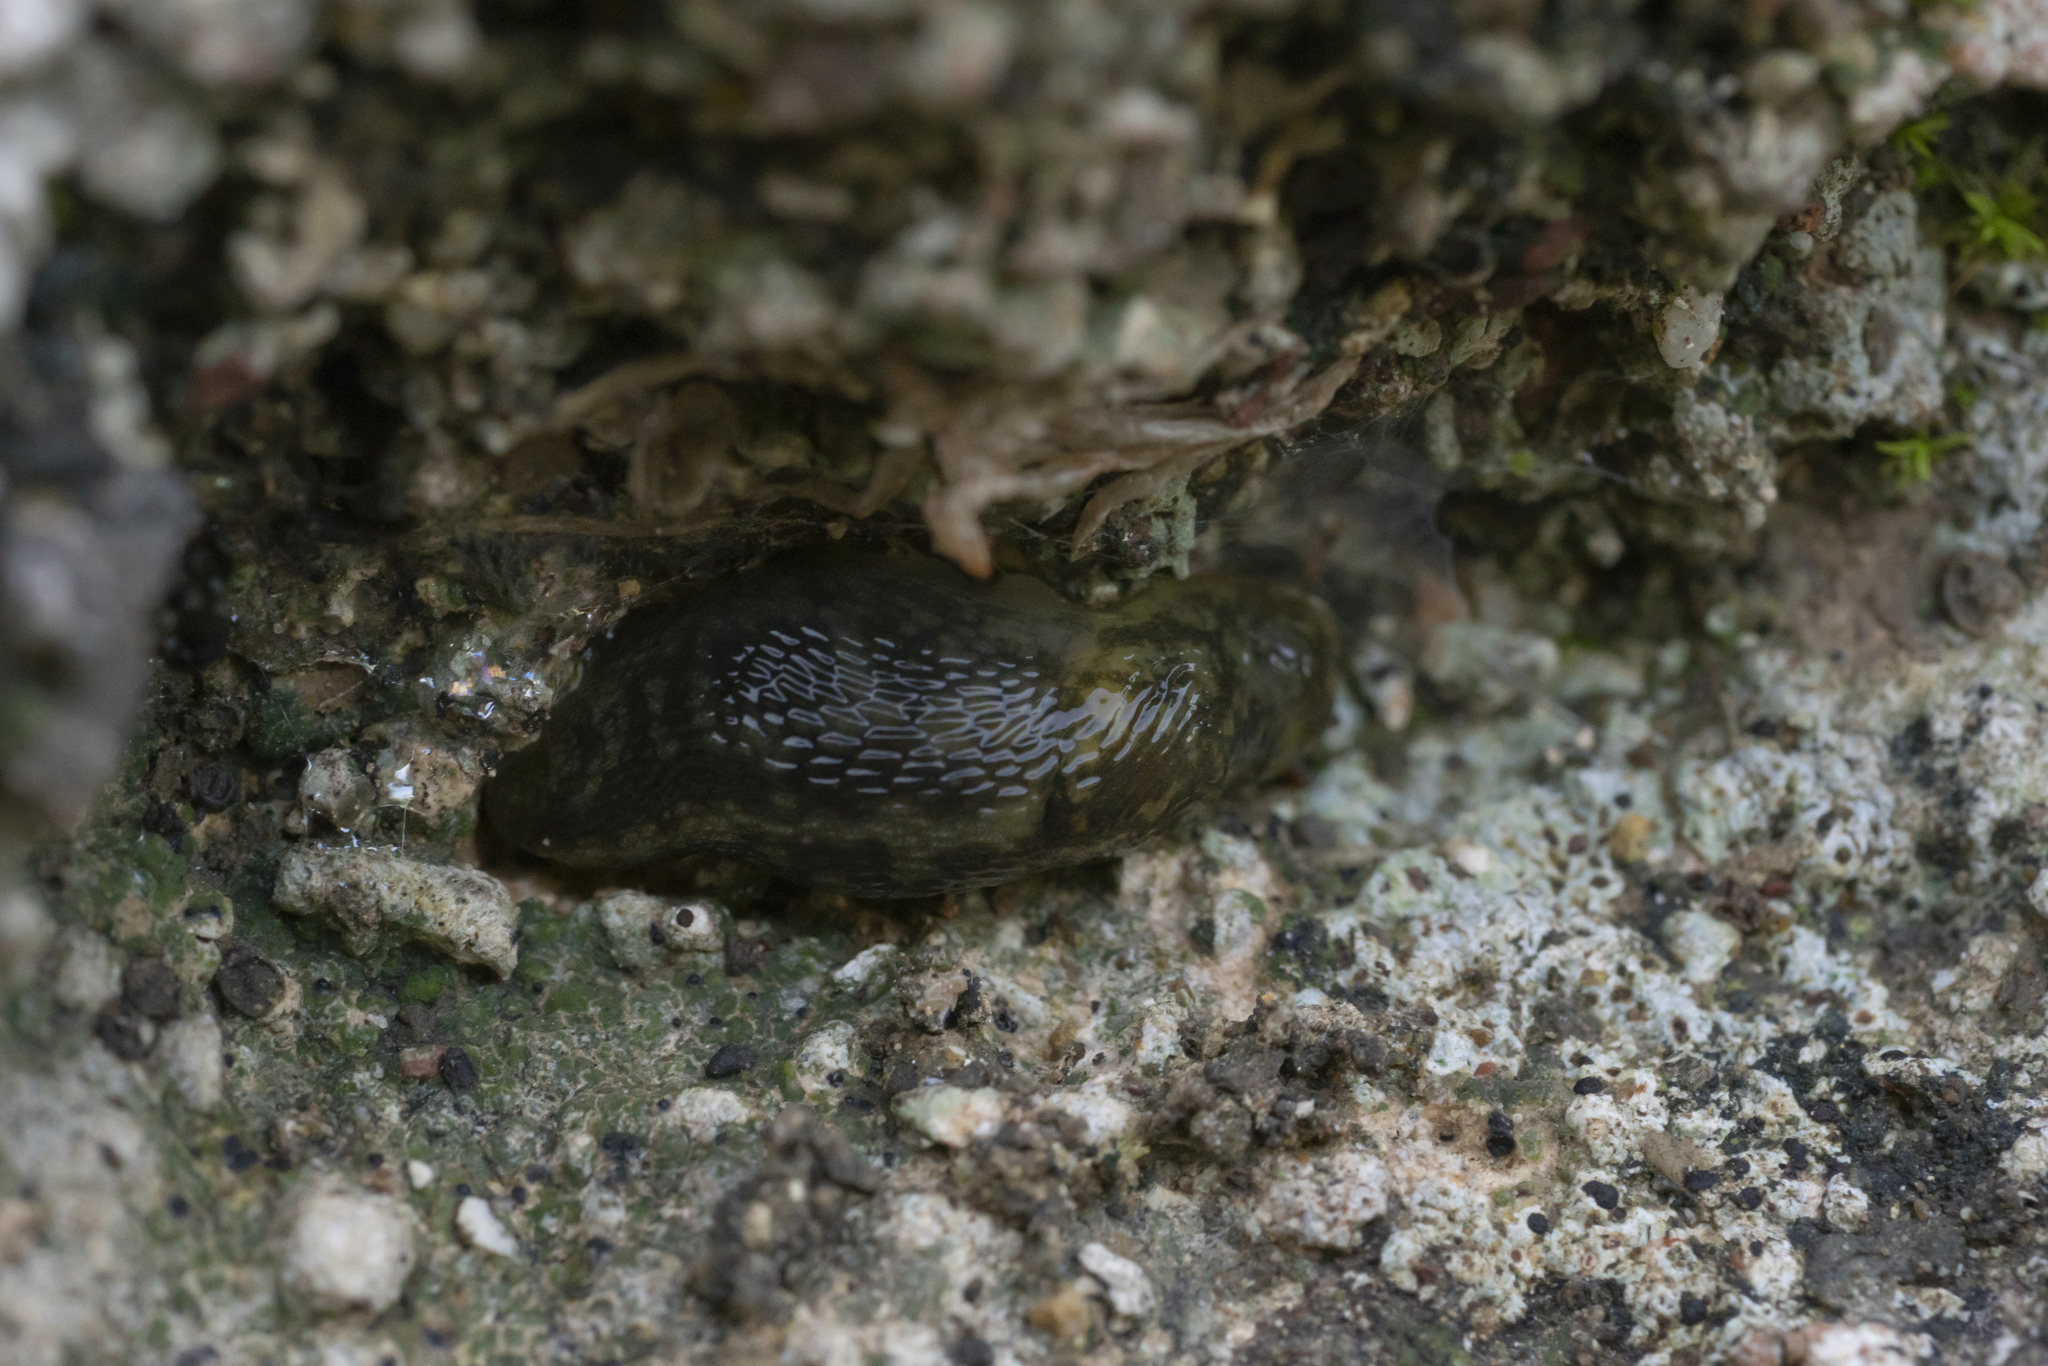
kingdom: Animalia
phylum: Mollusca
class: Gastropoda
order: Stylommatophora
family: Limacidae
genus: Limacus
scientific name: Limacus flavus
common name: Yellow gardenslug
